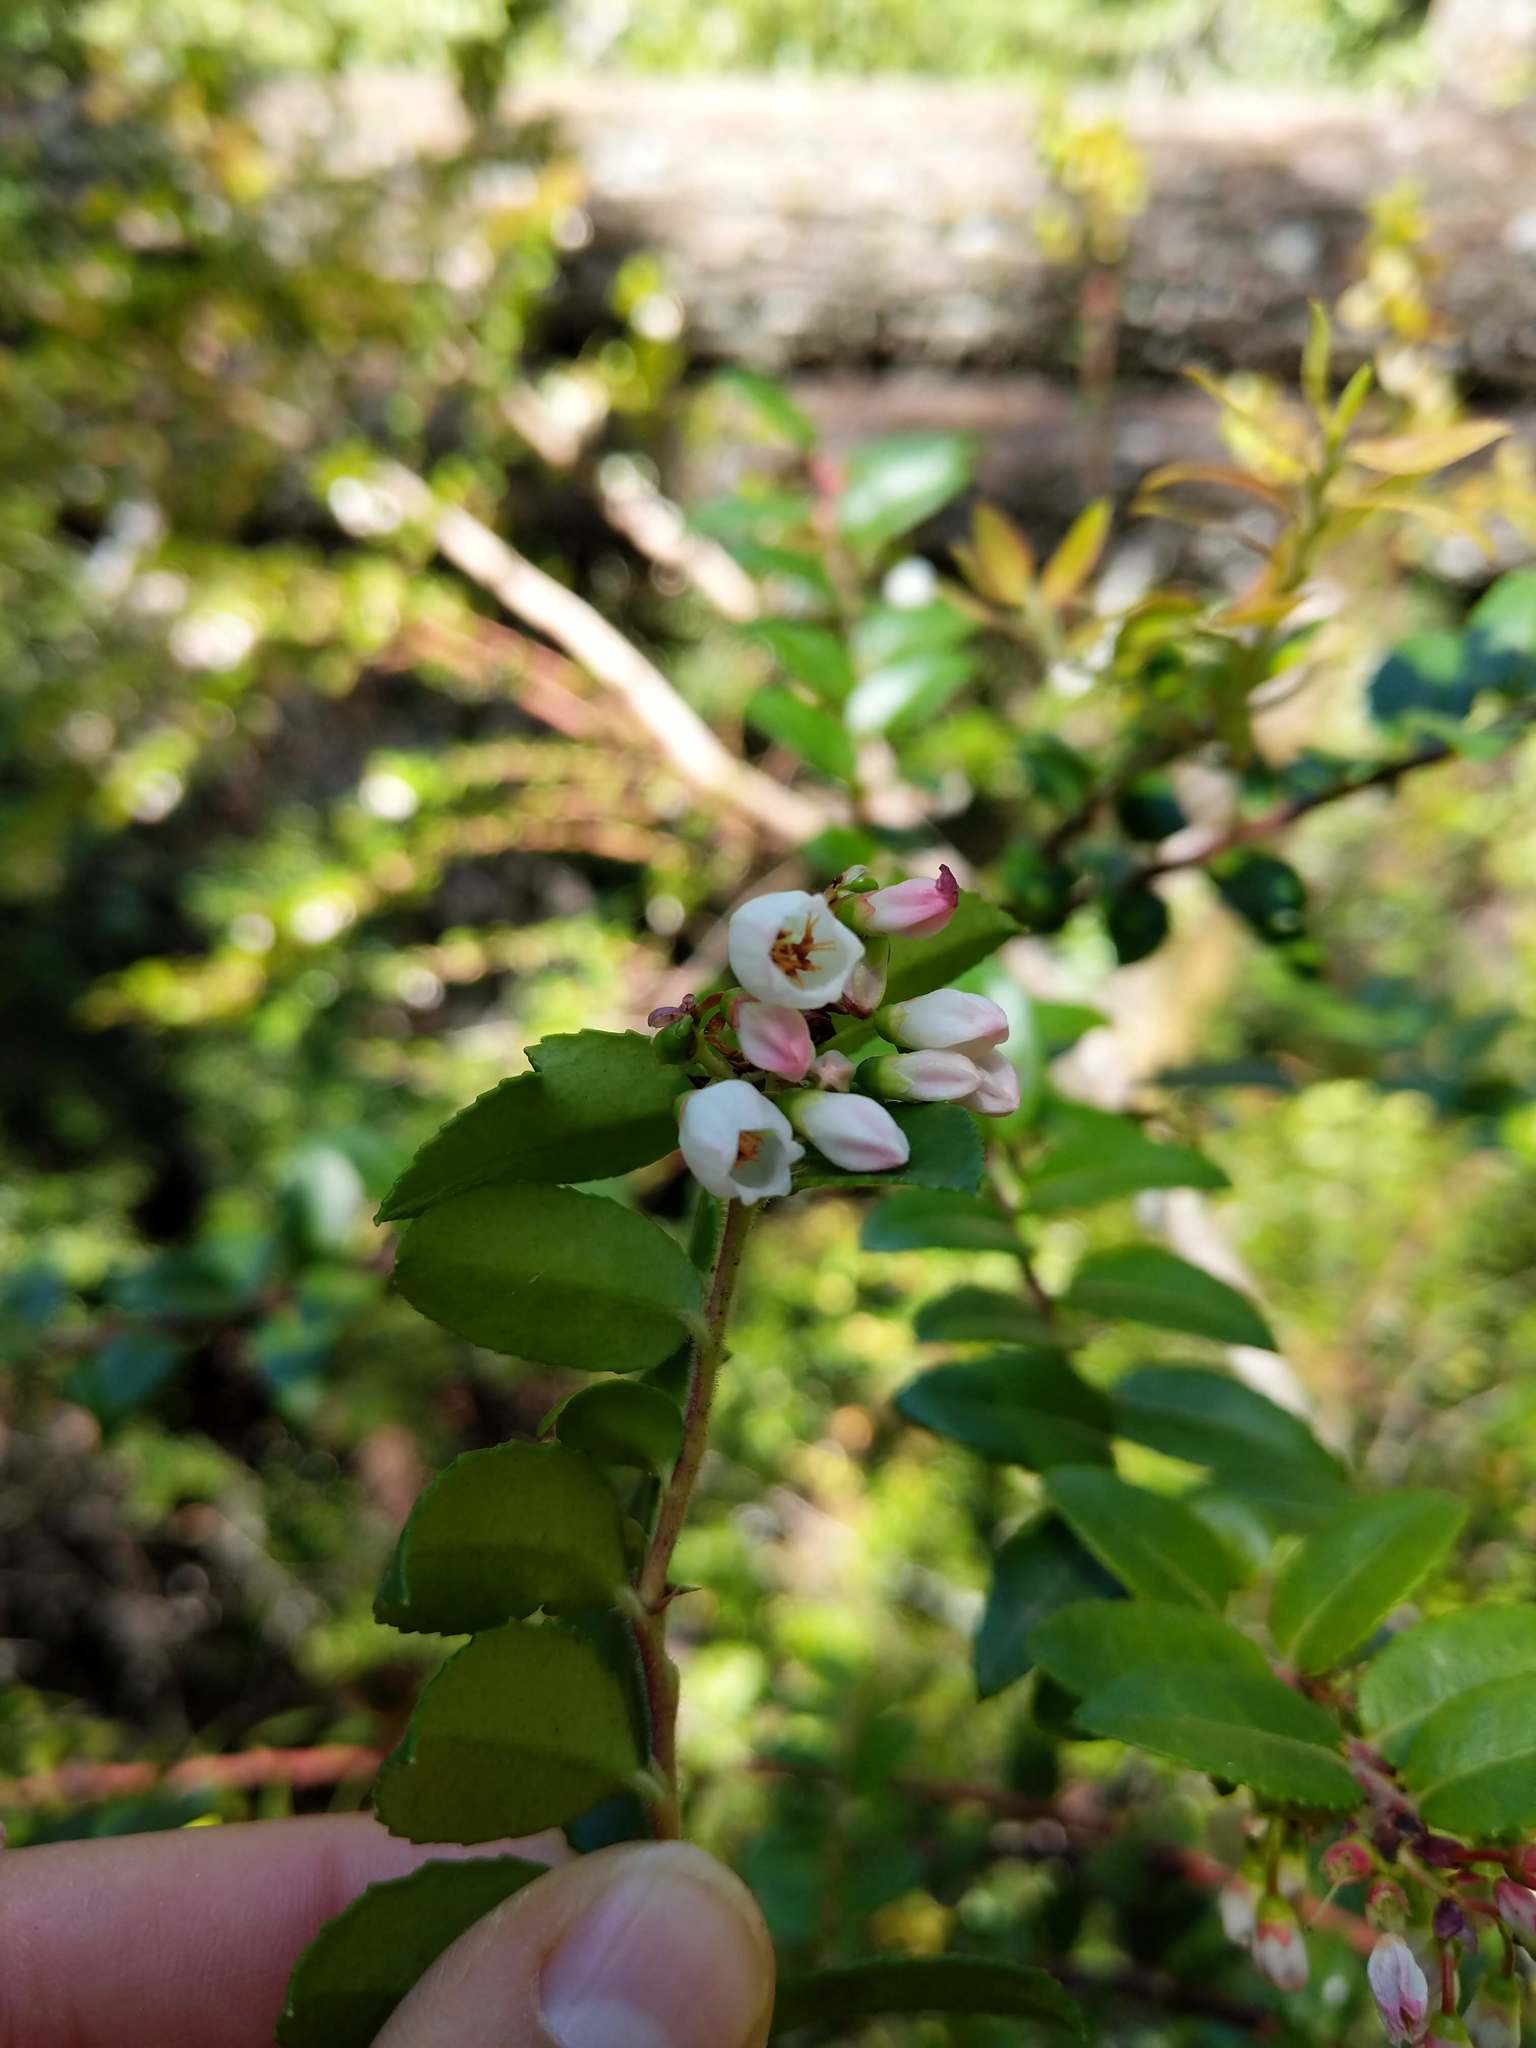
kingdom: Plantae
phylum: Tracheophyta
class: Magnoliopsida
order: Ericales
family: Ericaceae
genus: Vaccinium
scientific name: Vaccinium ovatum
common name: California-huckleberry
